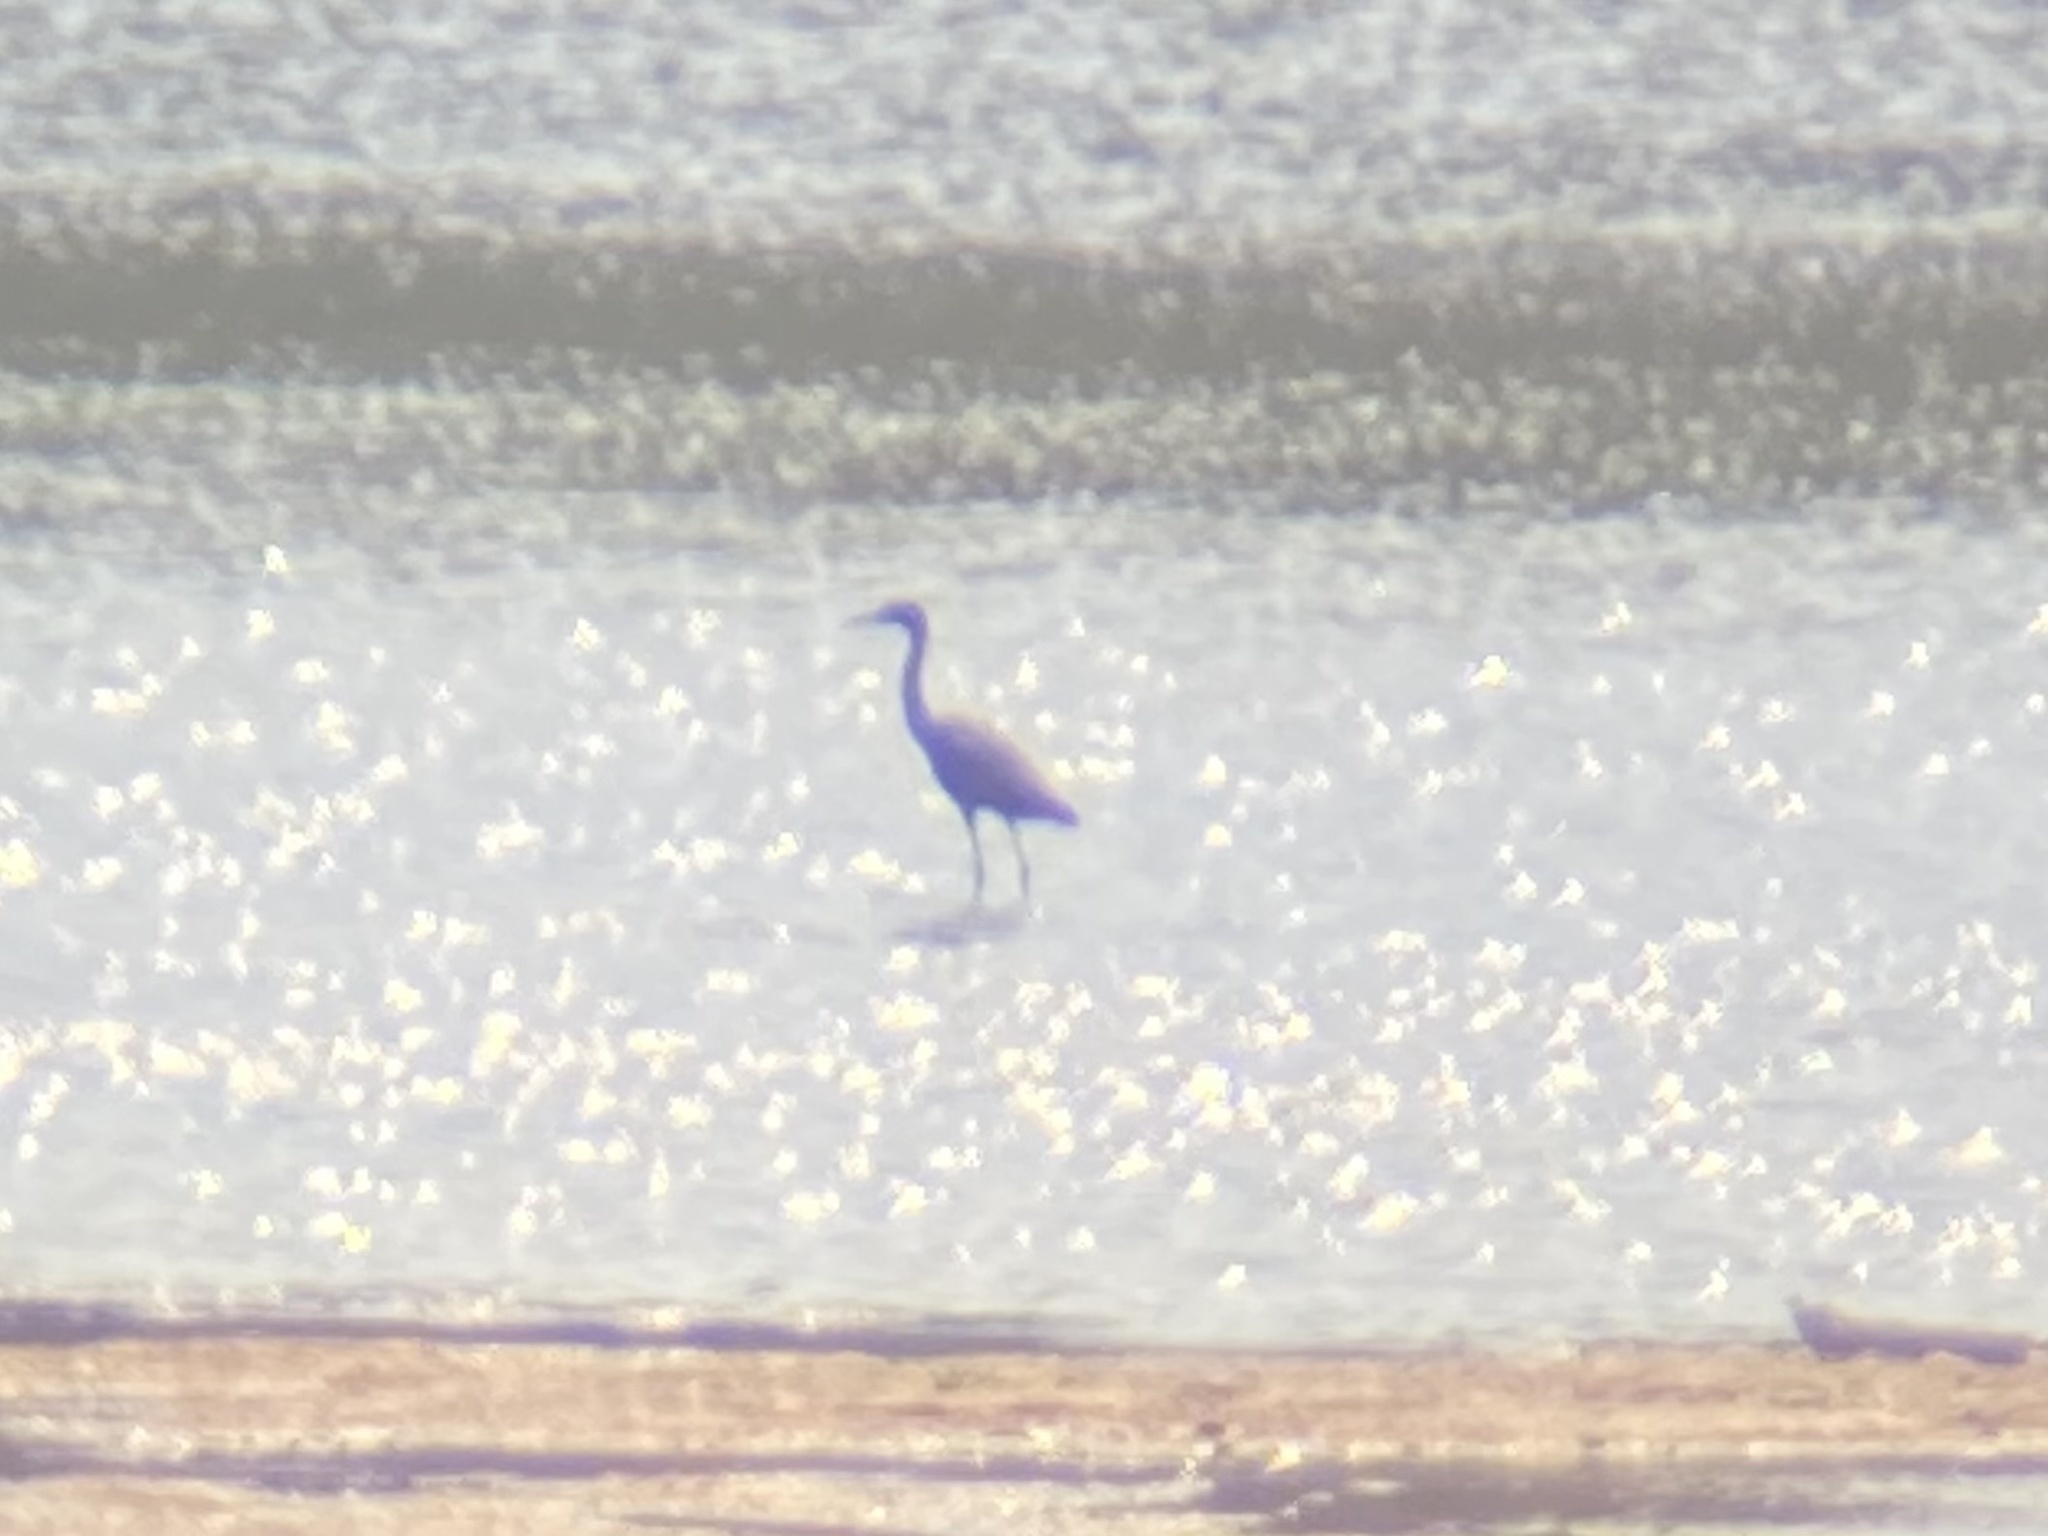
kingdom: Animalia
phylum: Chordata
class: Aves
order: Pelecaniformes
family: Ardeidae
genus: Egretta
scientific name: Egretta caerulea
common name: Little blue heron
